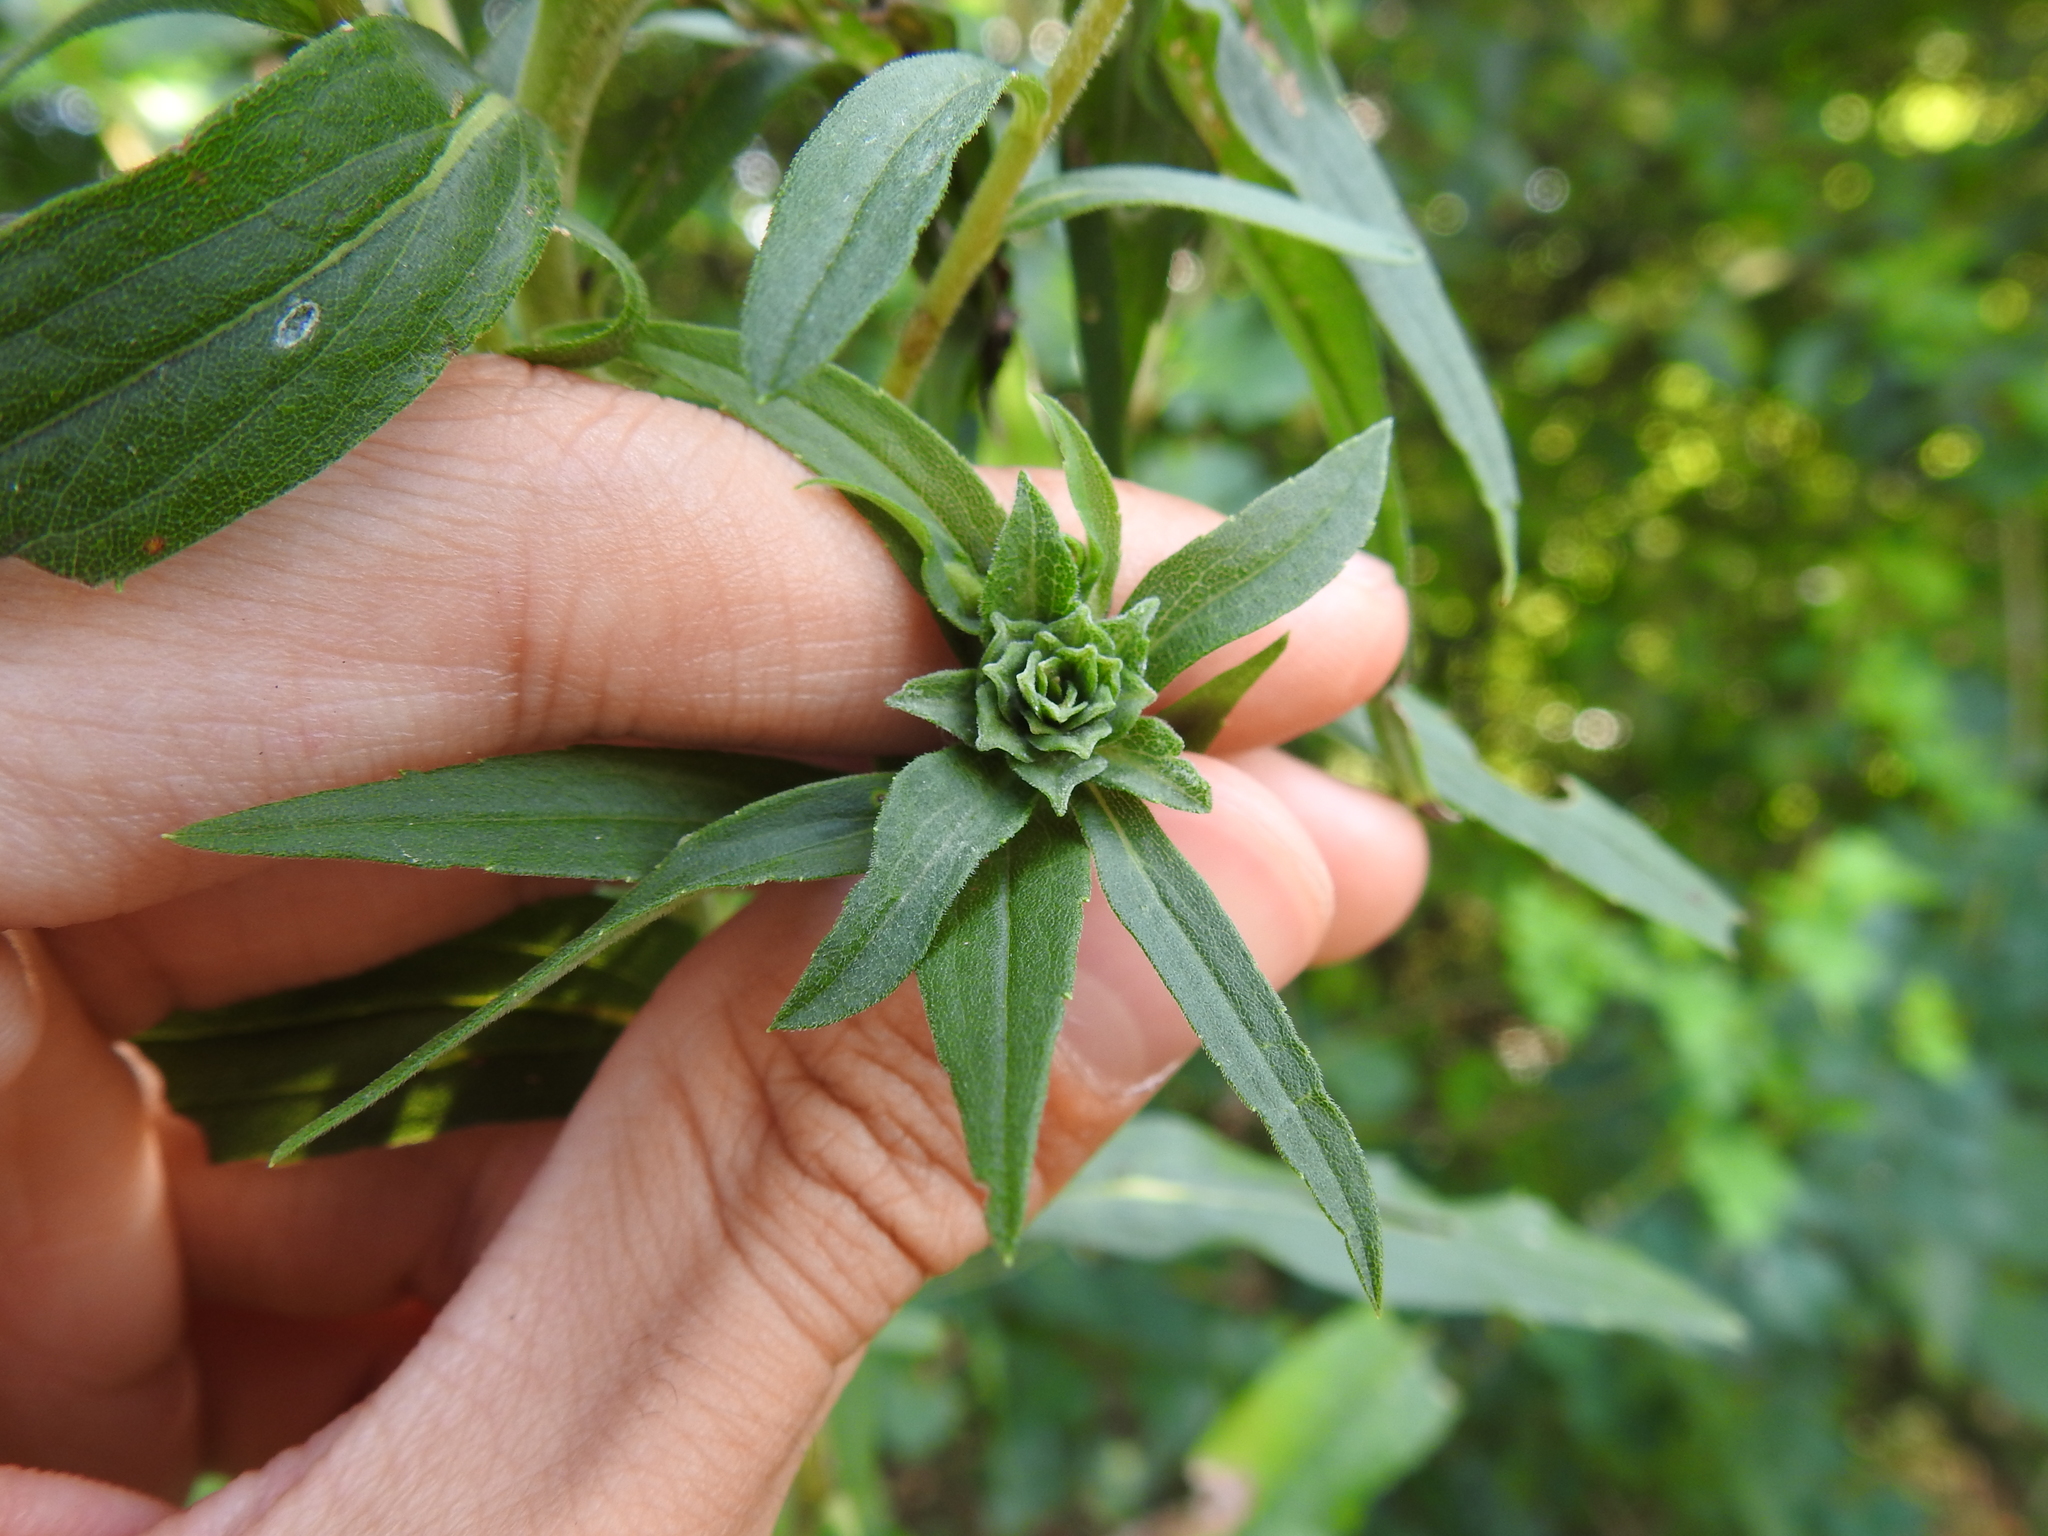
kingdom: Animalia
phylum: Arthropoda
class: Insecta
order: Diptera
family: Cecidomyiidae
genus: Asphondylia
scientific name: Asphondylia solidaginis
